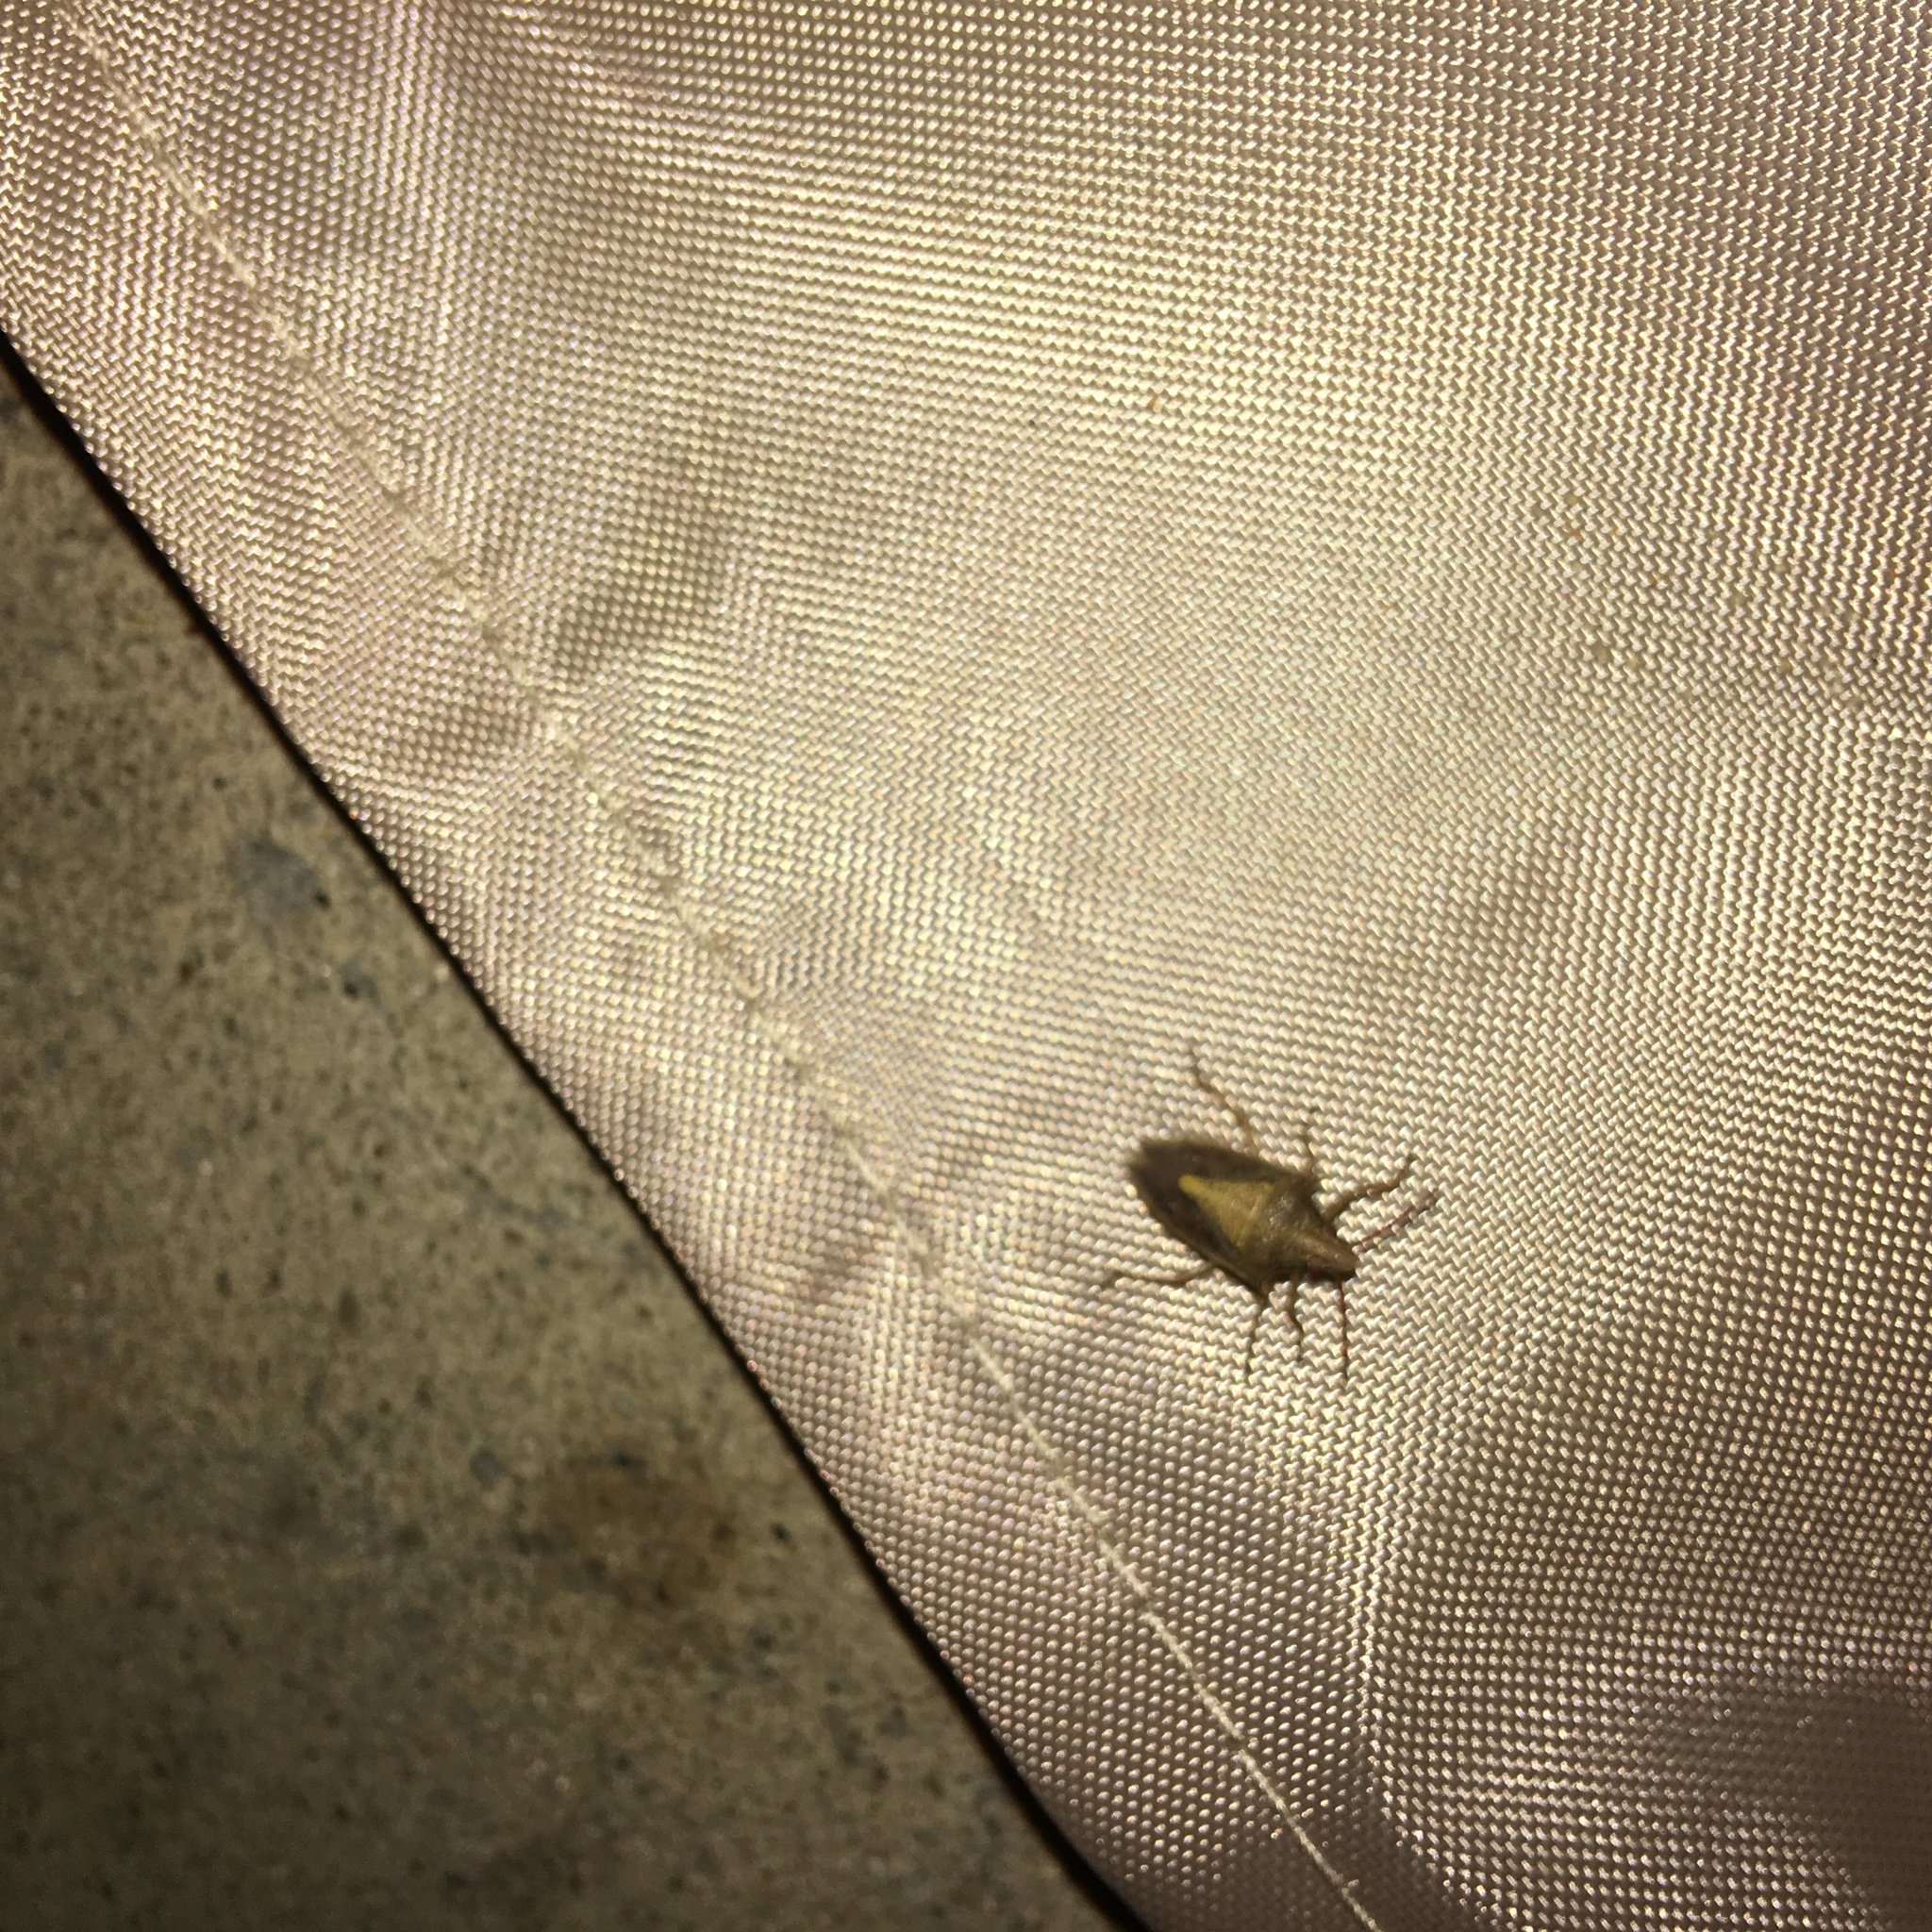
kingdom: Animalia
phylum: Arthropoda
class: Insecta
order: Hemiptera
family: Pentatomidae
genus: Oebalus
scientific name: Oebalus pugnax
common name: Rice stink bug
